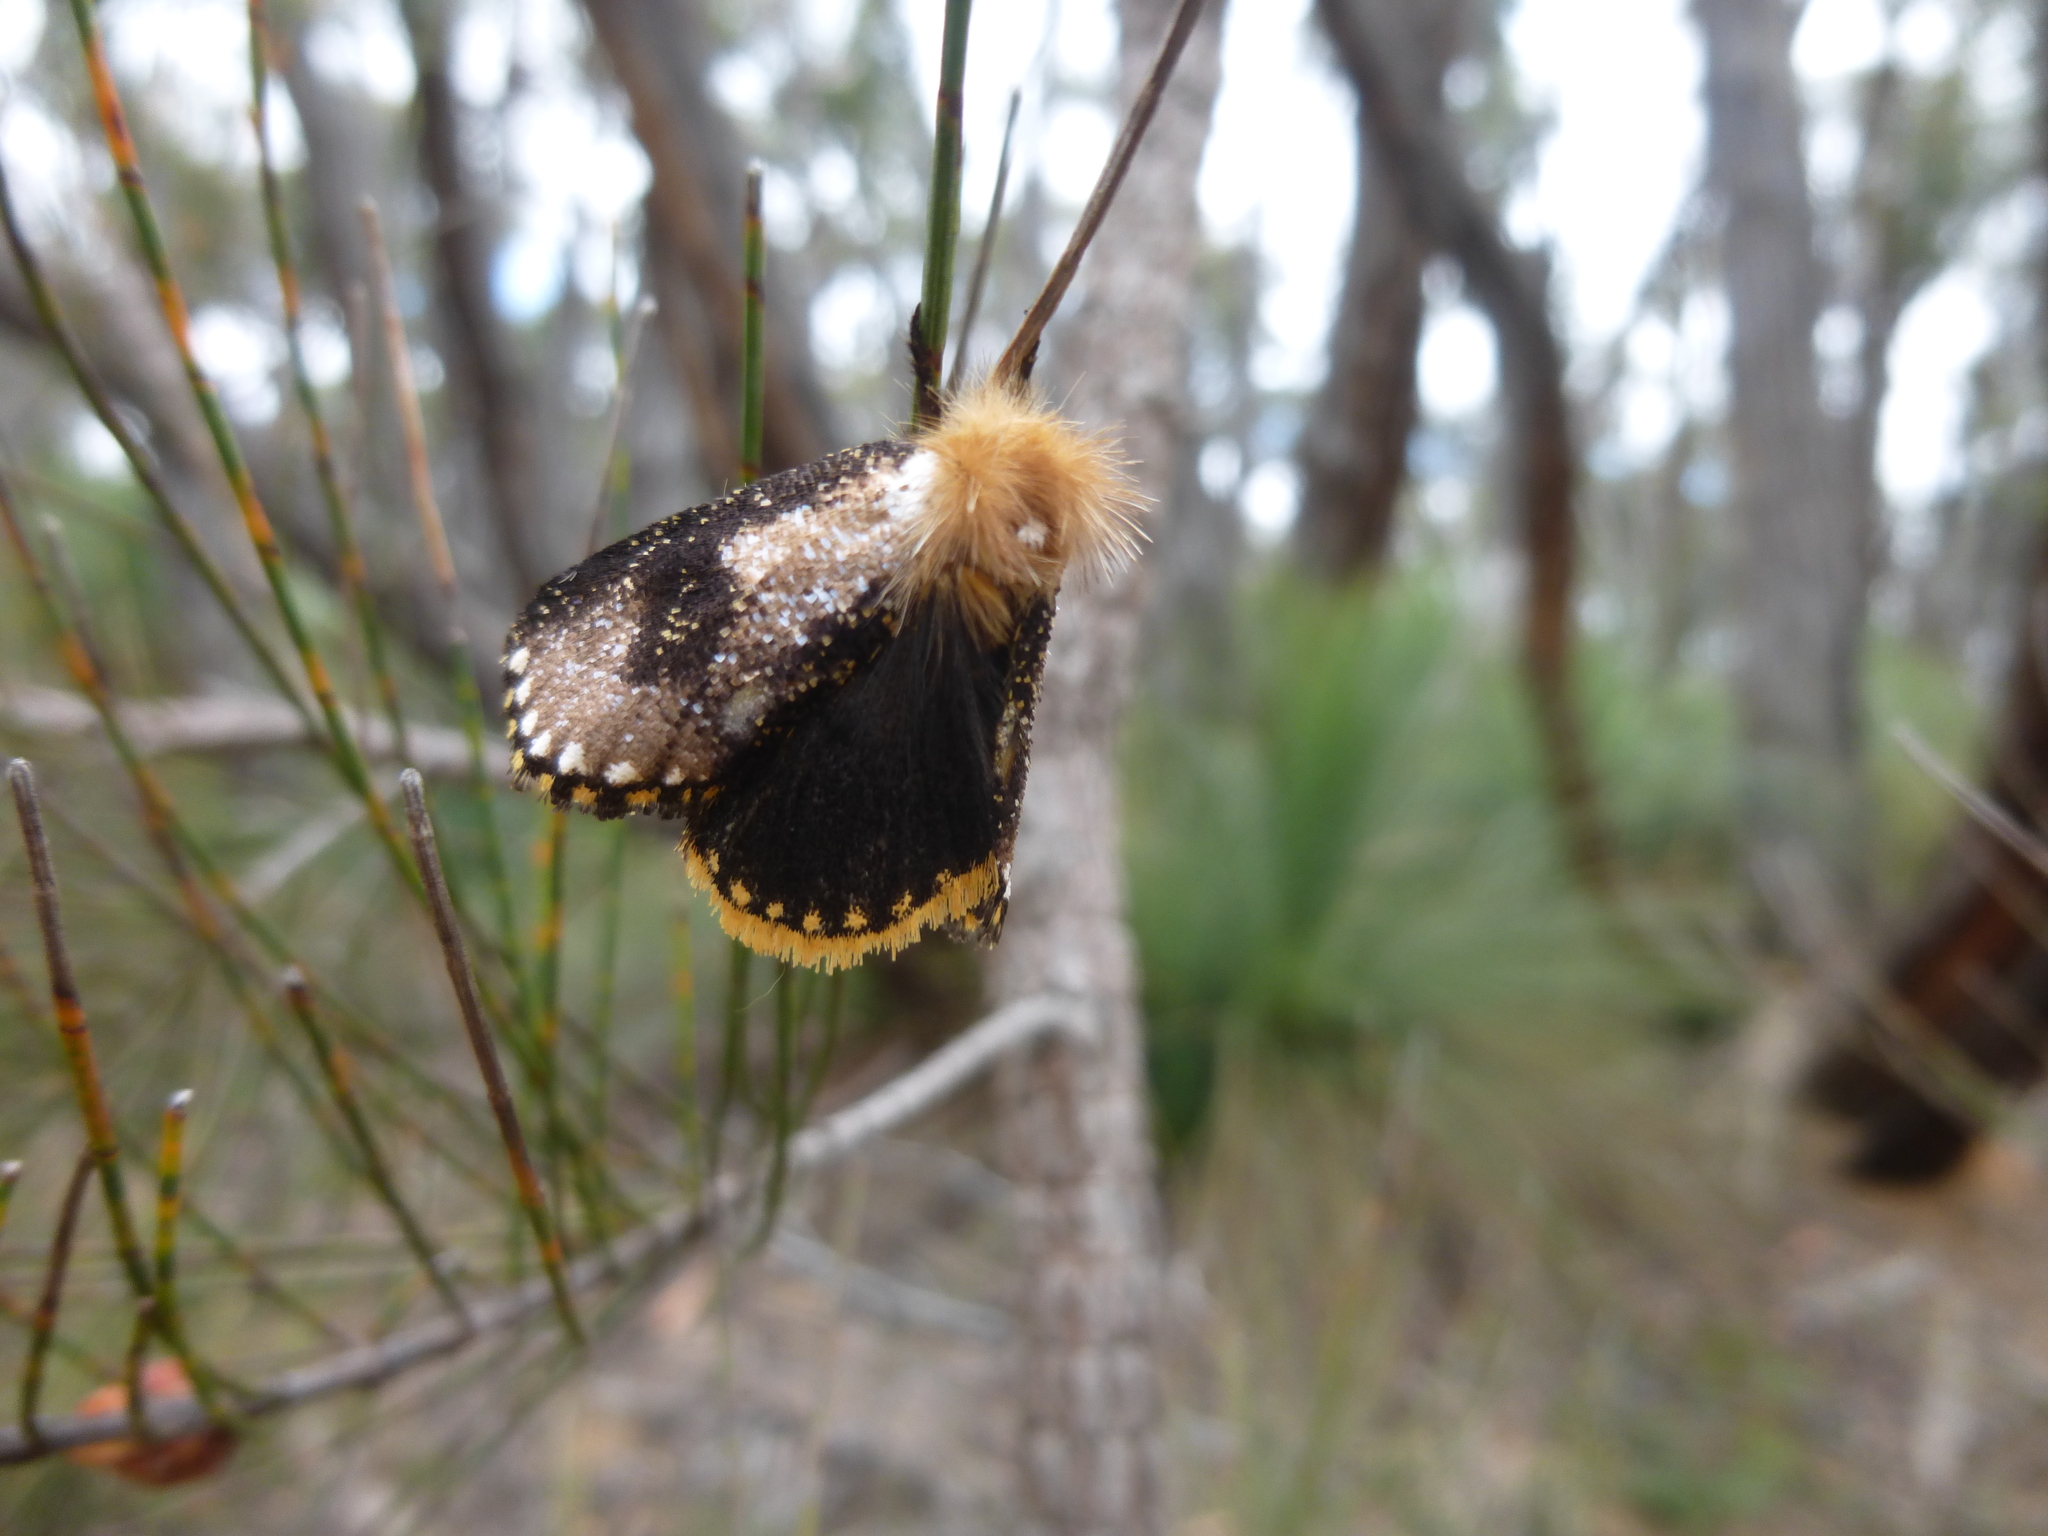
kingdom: Animalia
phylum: Arthropoda
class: Insecta
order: Lepidoptera
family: Notodontidae
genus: Epicoma
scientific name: Epicoma contristis
